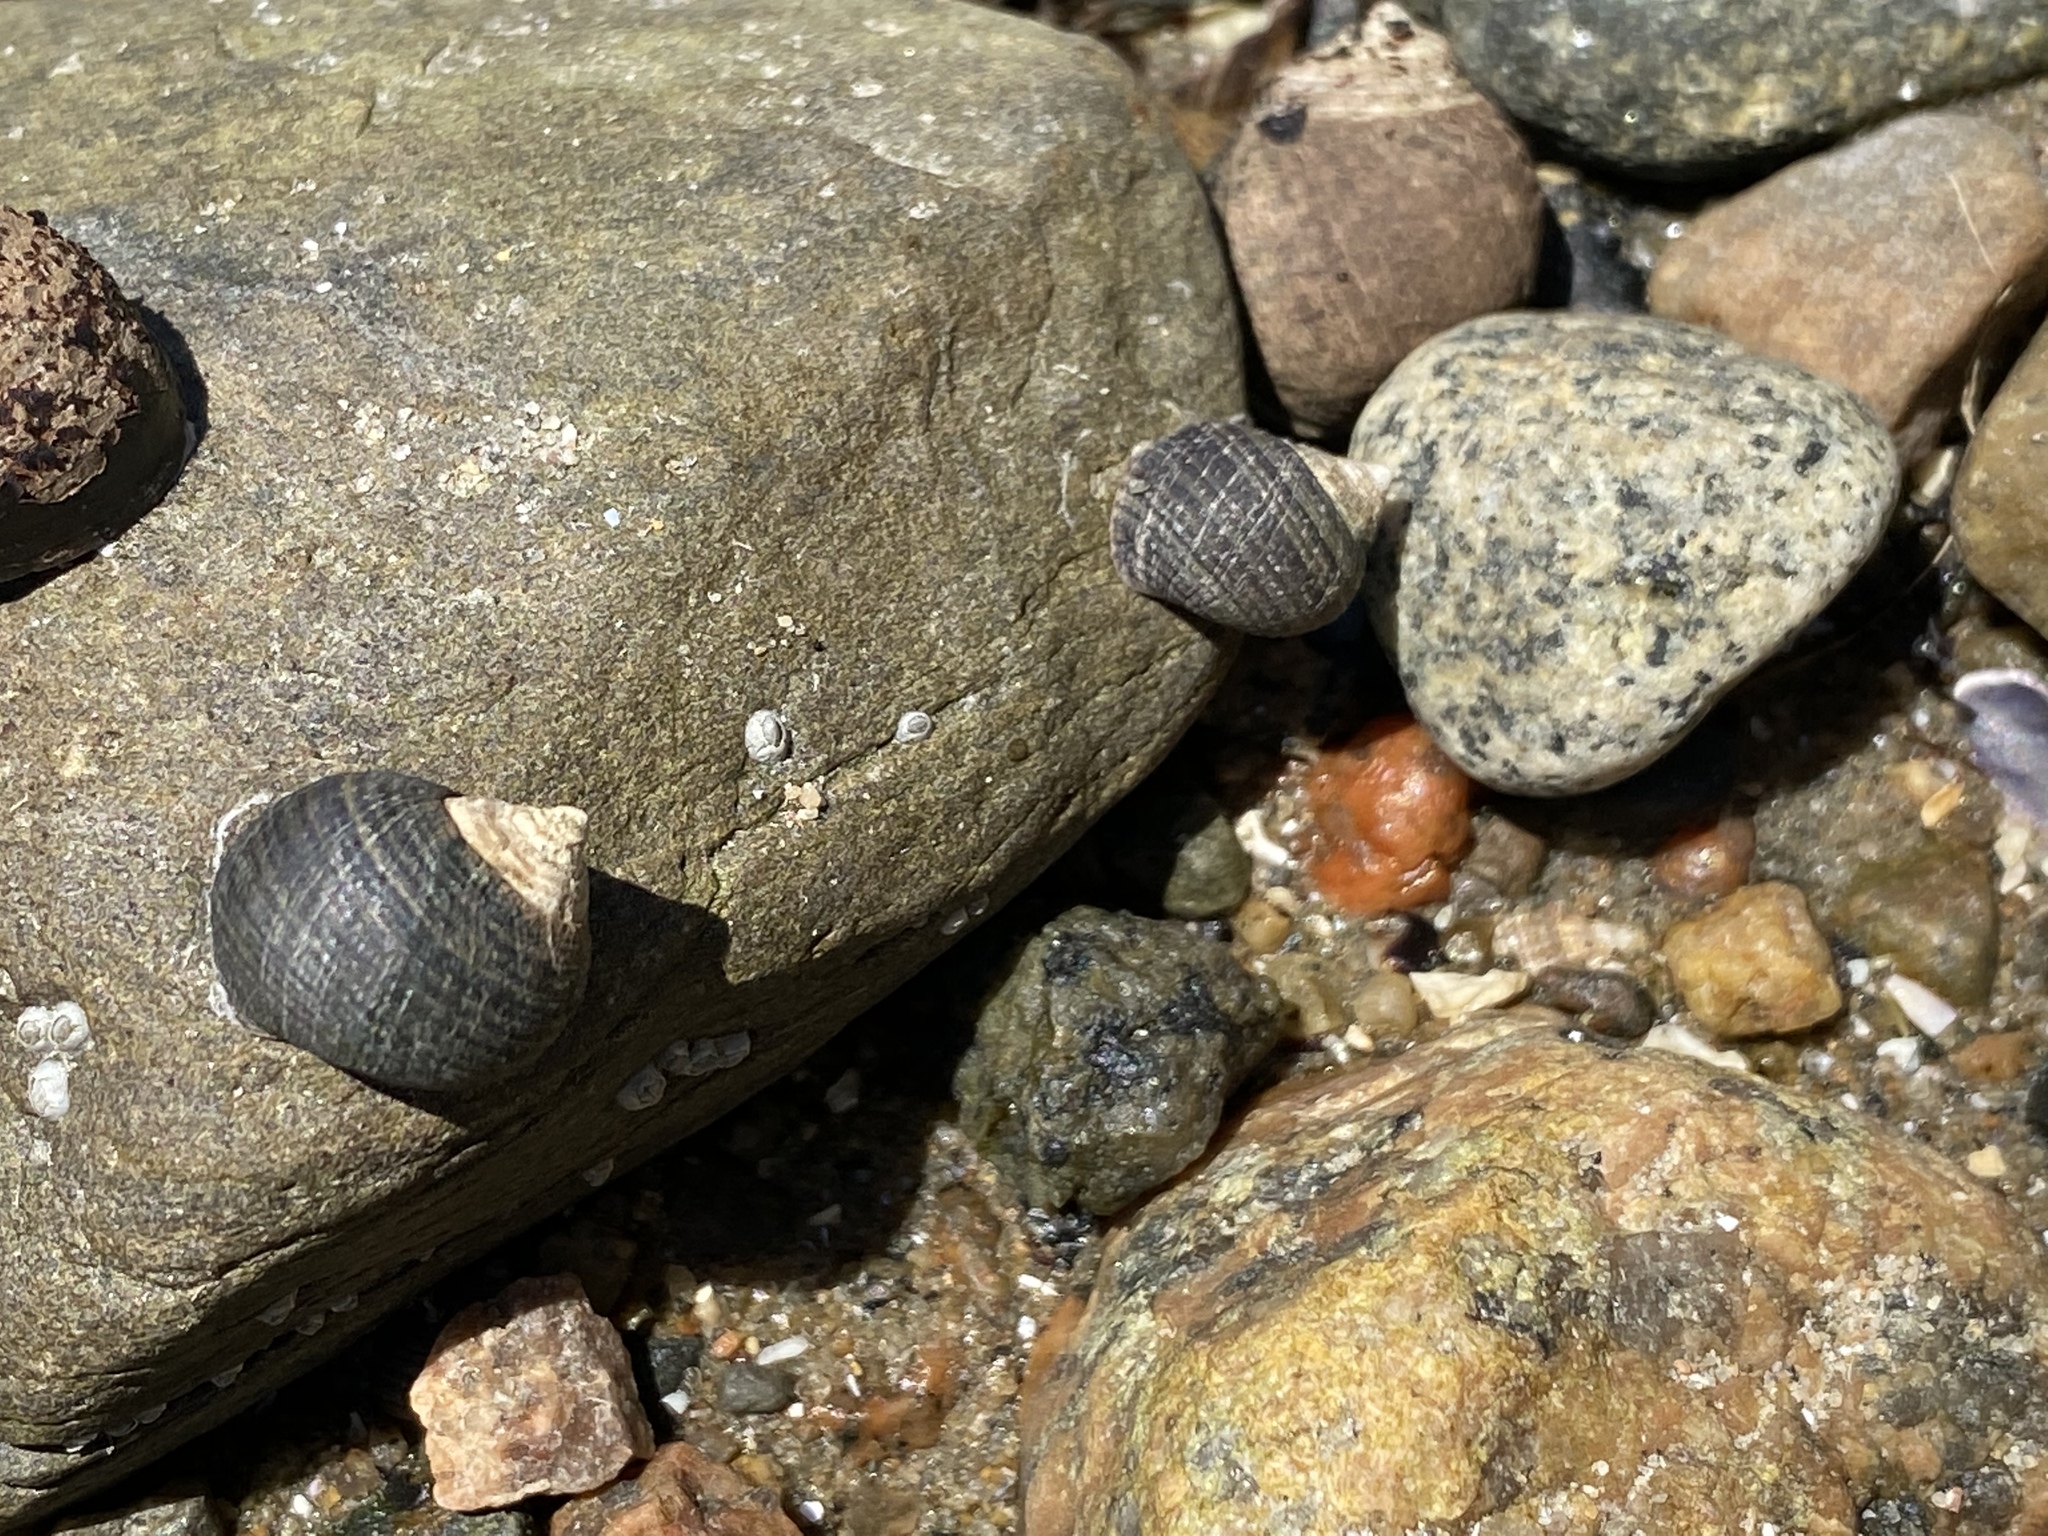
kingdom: Animalia
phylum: Mollusca
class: Gastropoda
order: Littorinimorpha
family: Littorinidae
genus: Littorina
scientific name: Littorina littorea
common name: Common periwinkle
